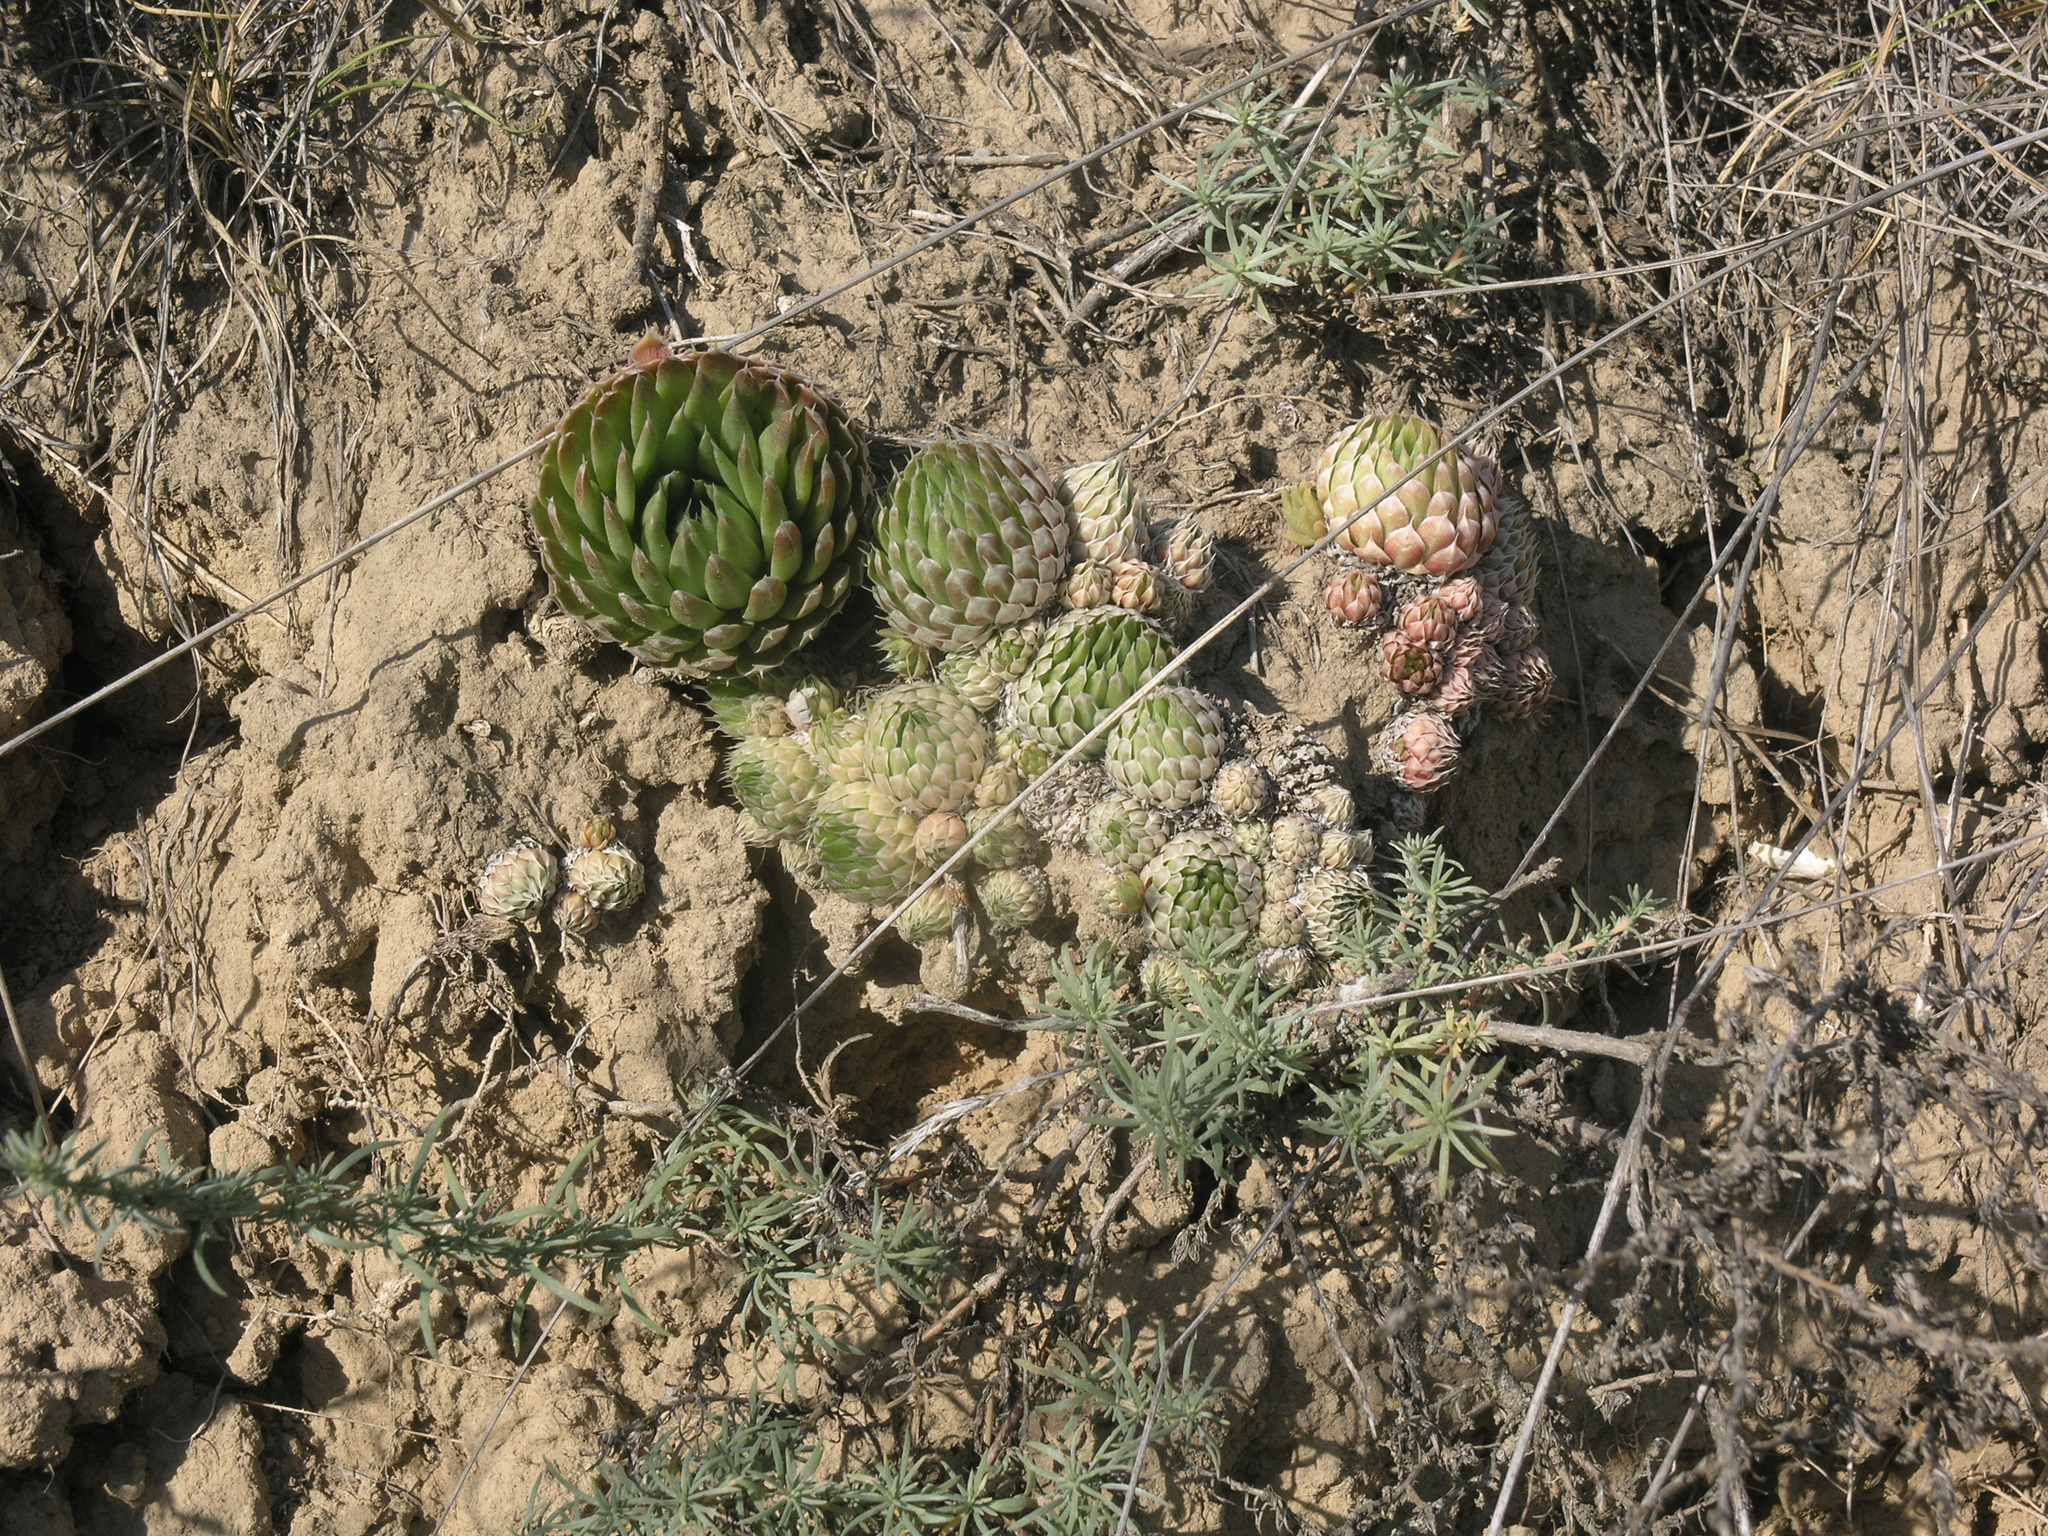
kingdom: Plantae
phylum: Tracheophyta
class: Magnoliopsida
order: Saxifragales
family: Crassulaceae
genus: Orostachys
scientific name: Orostachys spinosa
